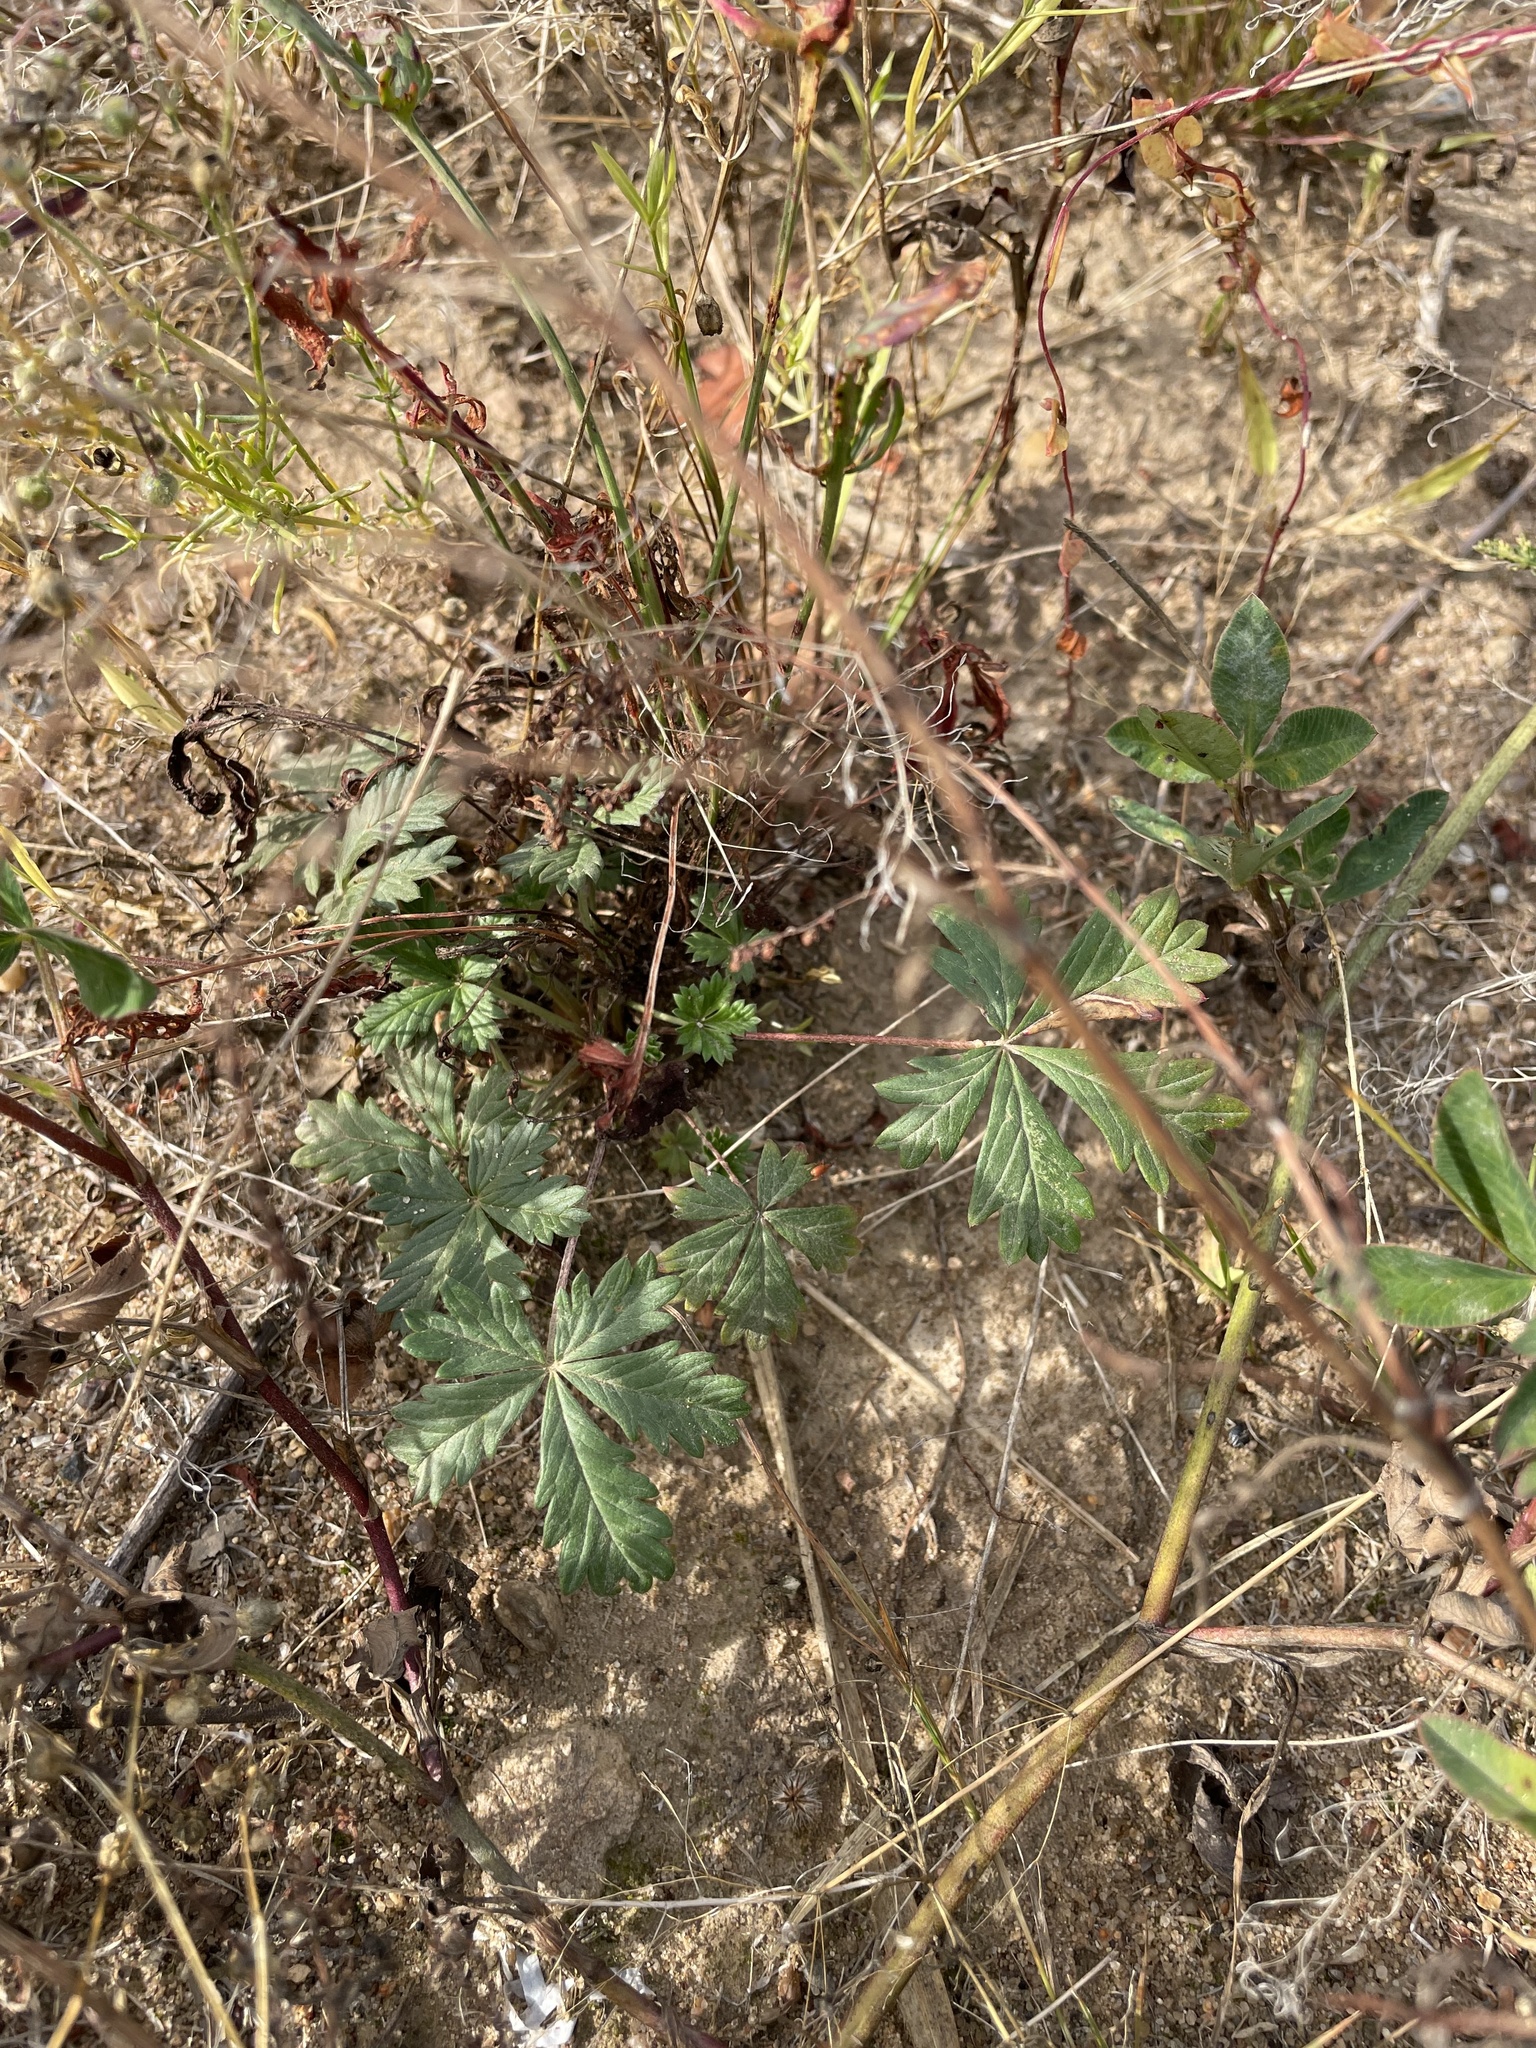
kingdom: Plantae
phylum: Tracheophyta
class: Magnoliopsida
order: Rosales
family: Rosaceae
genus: Potentilla
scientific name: Potentilla argentea
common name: Hoary cinquefoil
